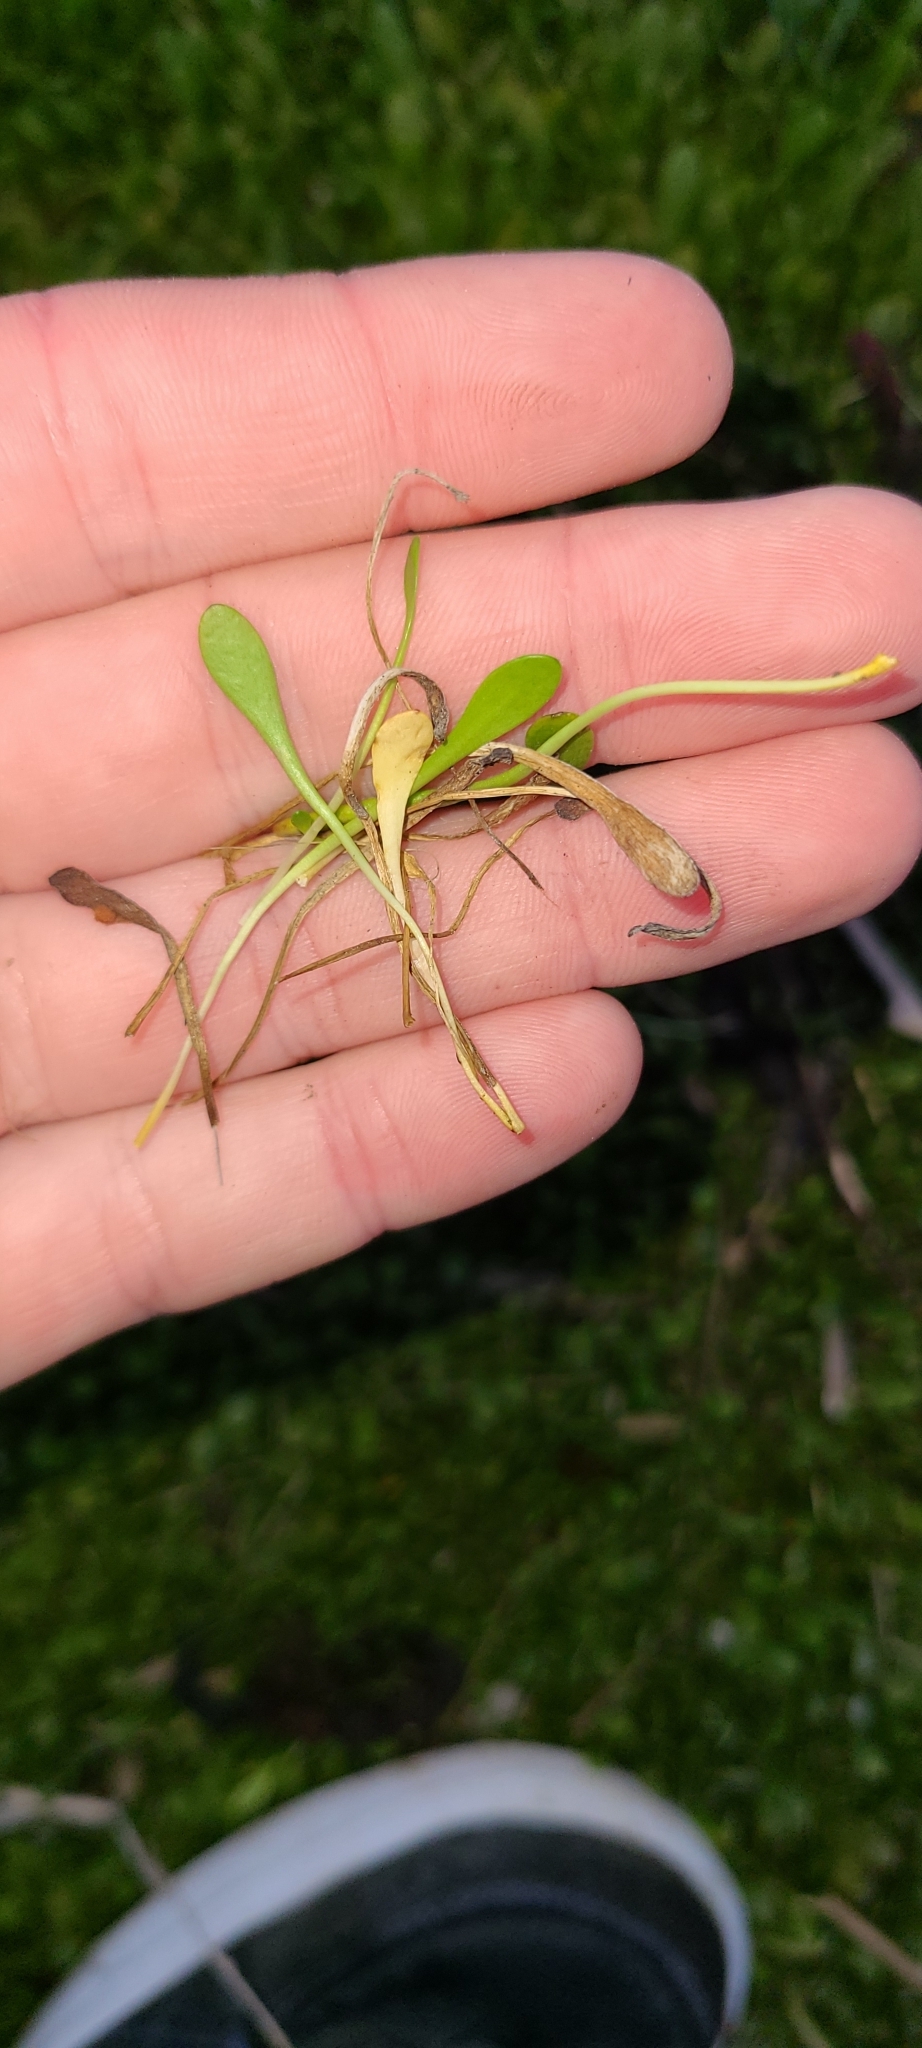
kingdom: Plantae
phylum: Tracheophyta
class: Magnoliopsida
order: Asterales
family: Goodeniaceae
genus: Goodenia
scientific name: Goodenia radicans
